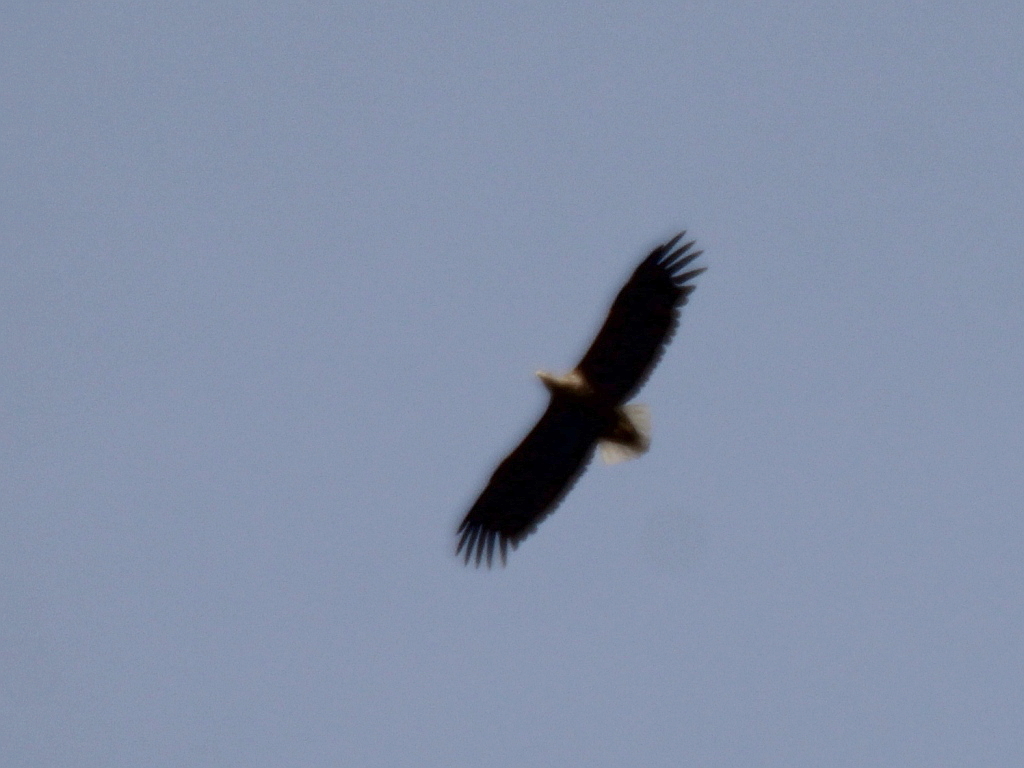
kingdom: Animalia
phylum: Chordata
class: Aves
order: Accipitriformes
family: Accipitridae
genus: Haliaeetus
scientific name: Haliaeetus albicilla
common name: White-tailed eagle
